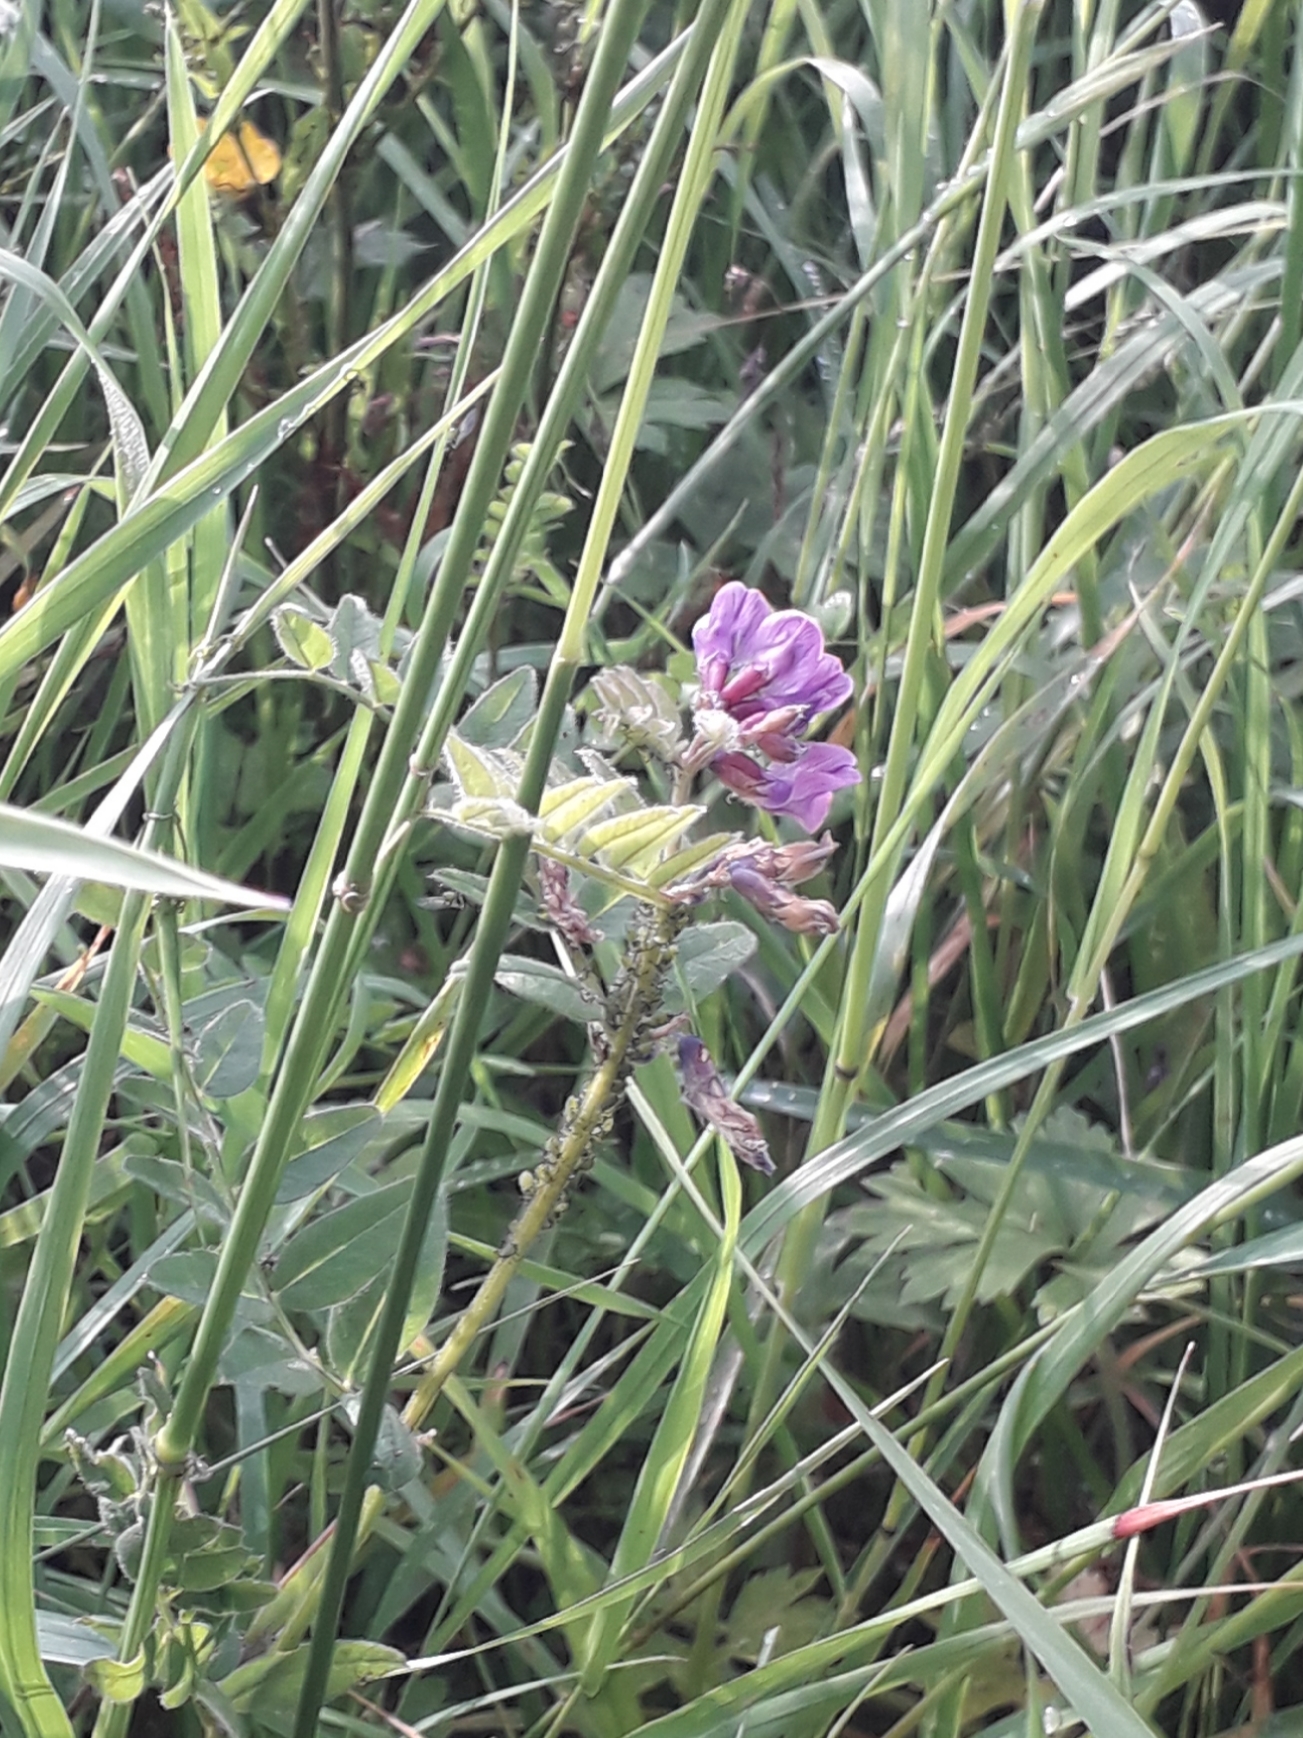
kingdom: Plantae
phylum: Tracheophyta
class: Magnoliopsida
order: Fabales
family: Fabaceae
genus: Vicia
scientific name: Vicia sepium
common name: Bush vetch
